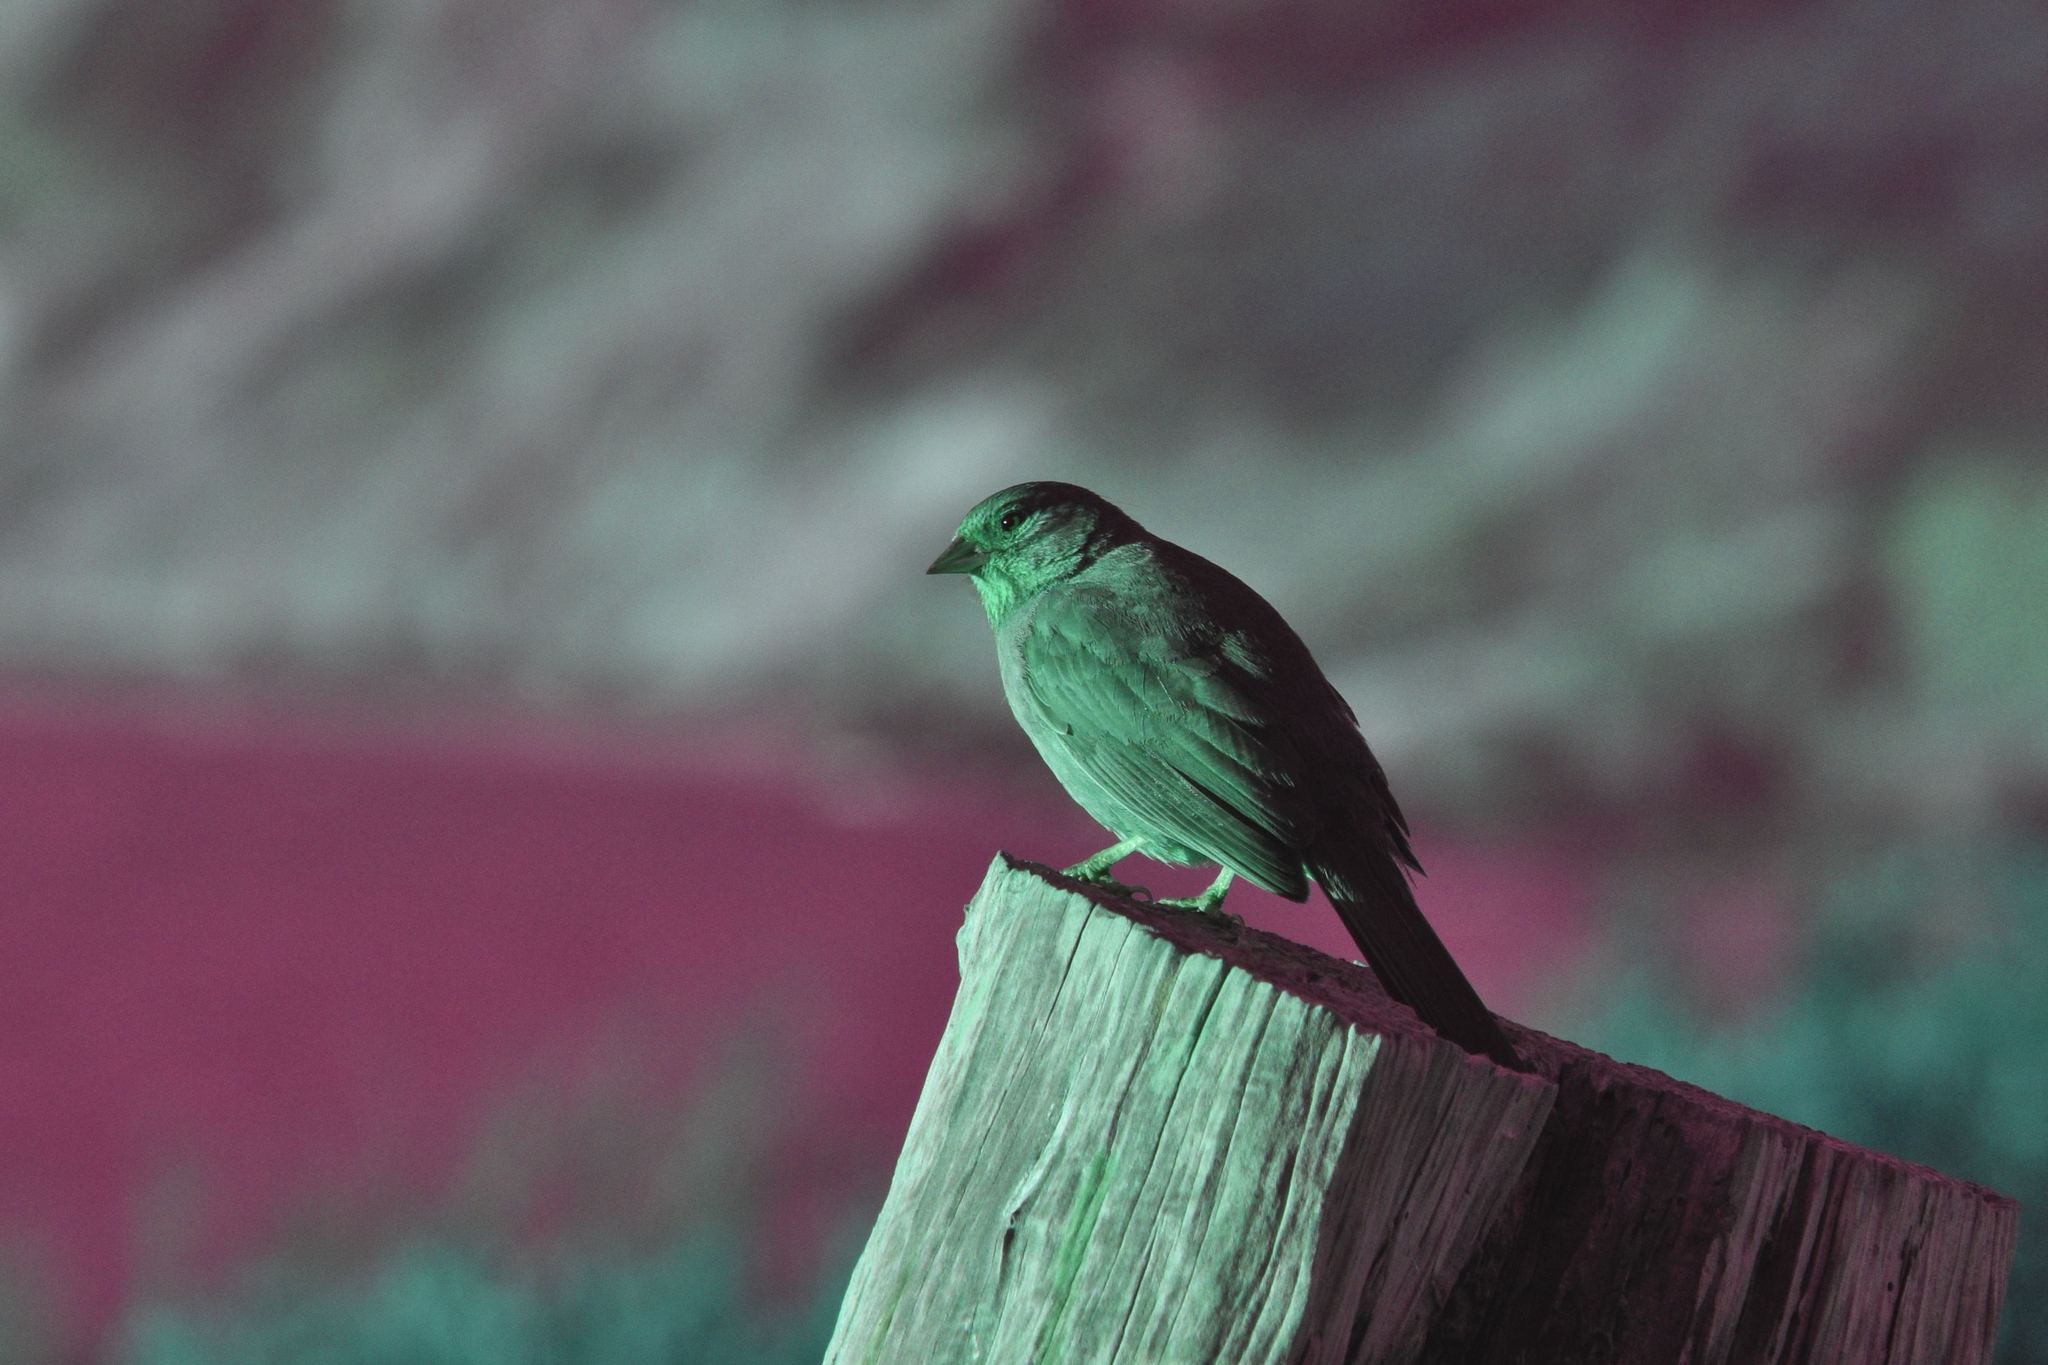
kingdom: Animalia
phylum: Chordata
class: Aves
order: Passeriformes
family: Passerellidae
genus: Melozone
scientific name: Melozone crissalis
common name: California towhee
